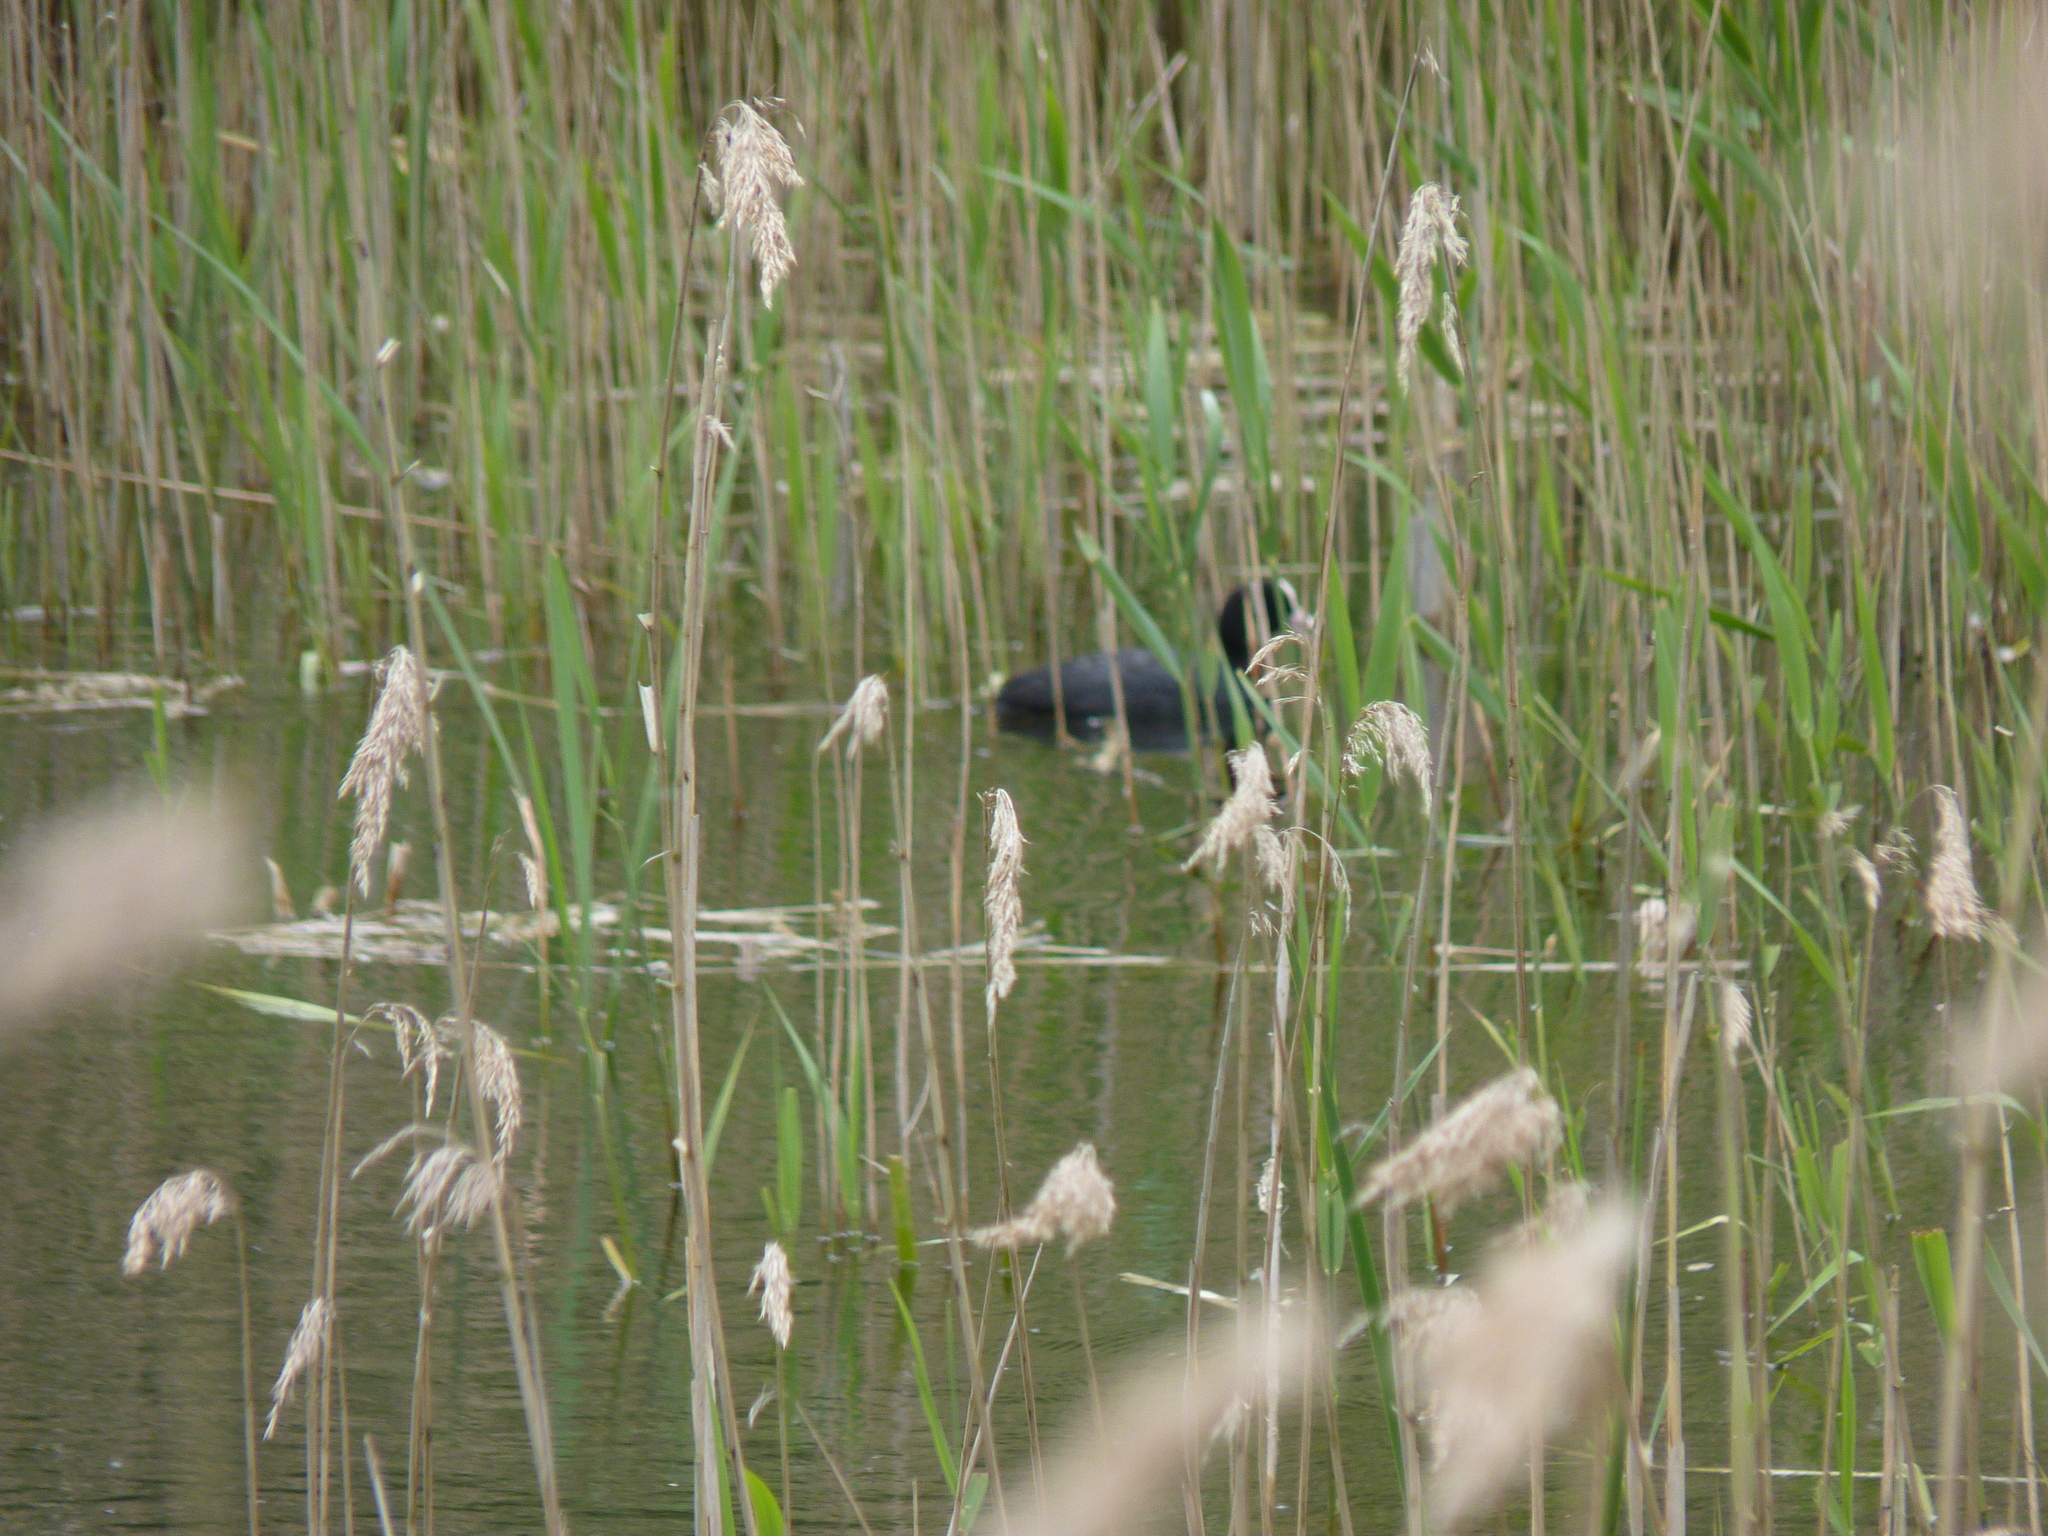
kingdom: Animalia
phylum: Chordata
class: Aves
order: Gruiformes
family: Rallidae
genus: Fulica
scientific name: Fulica atra
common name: Eurasian coot
